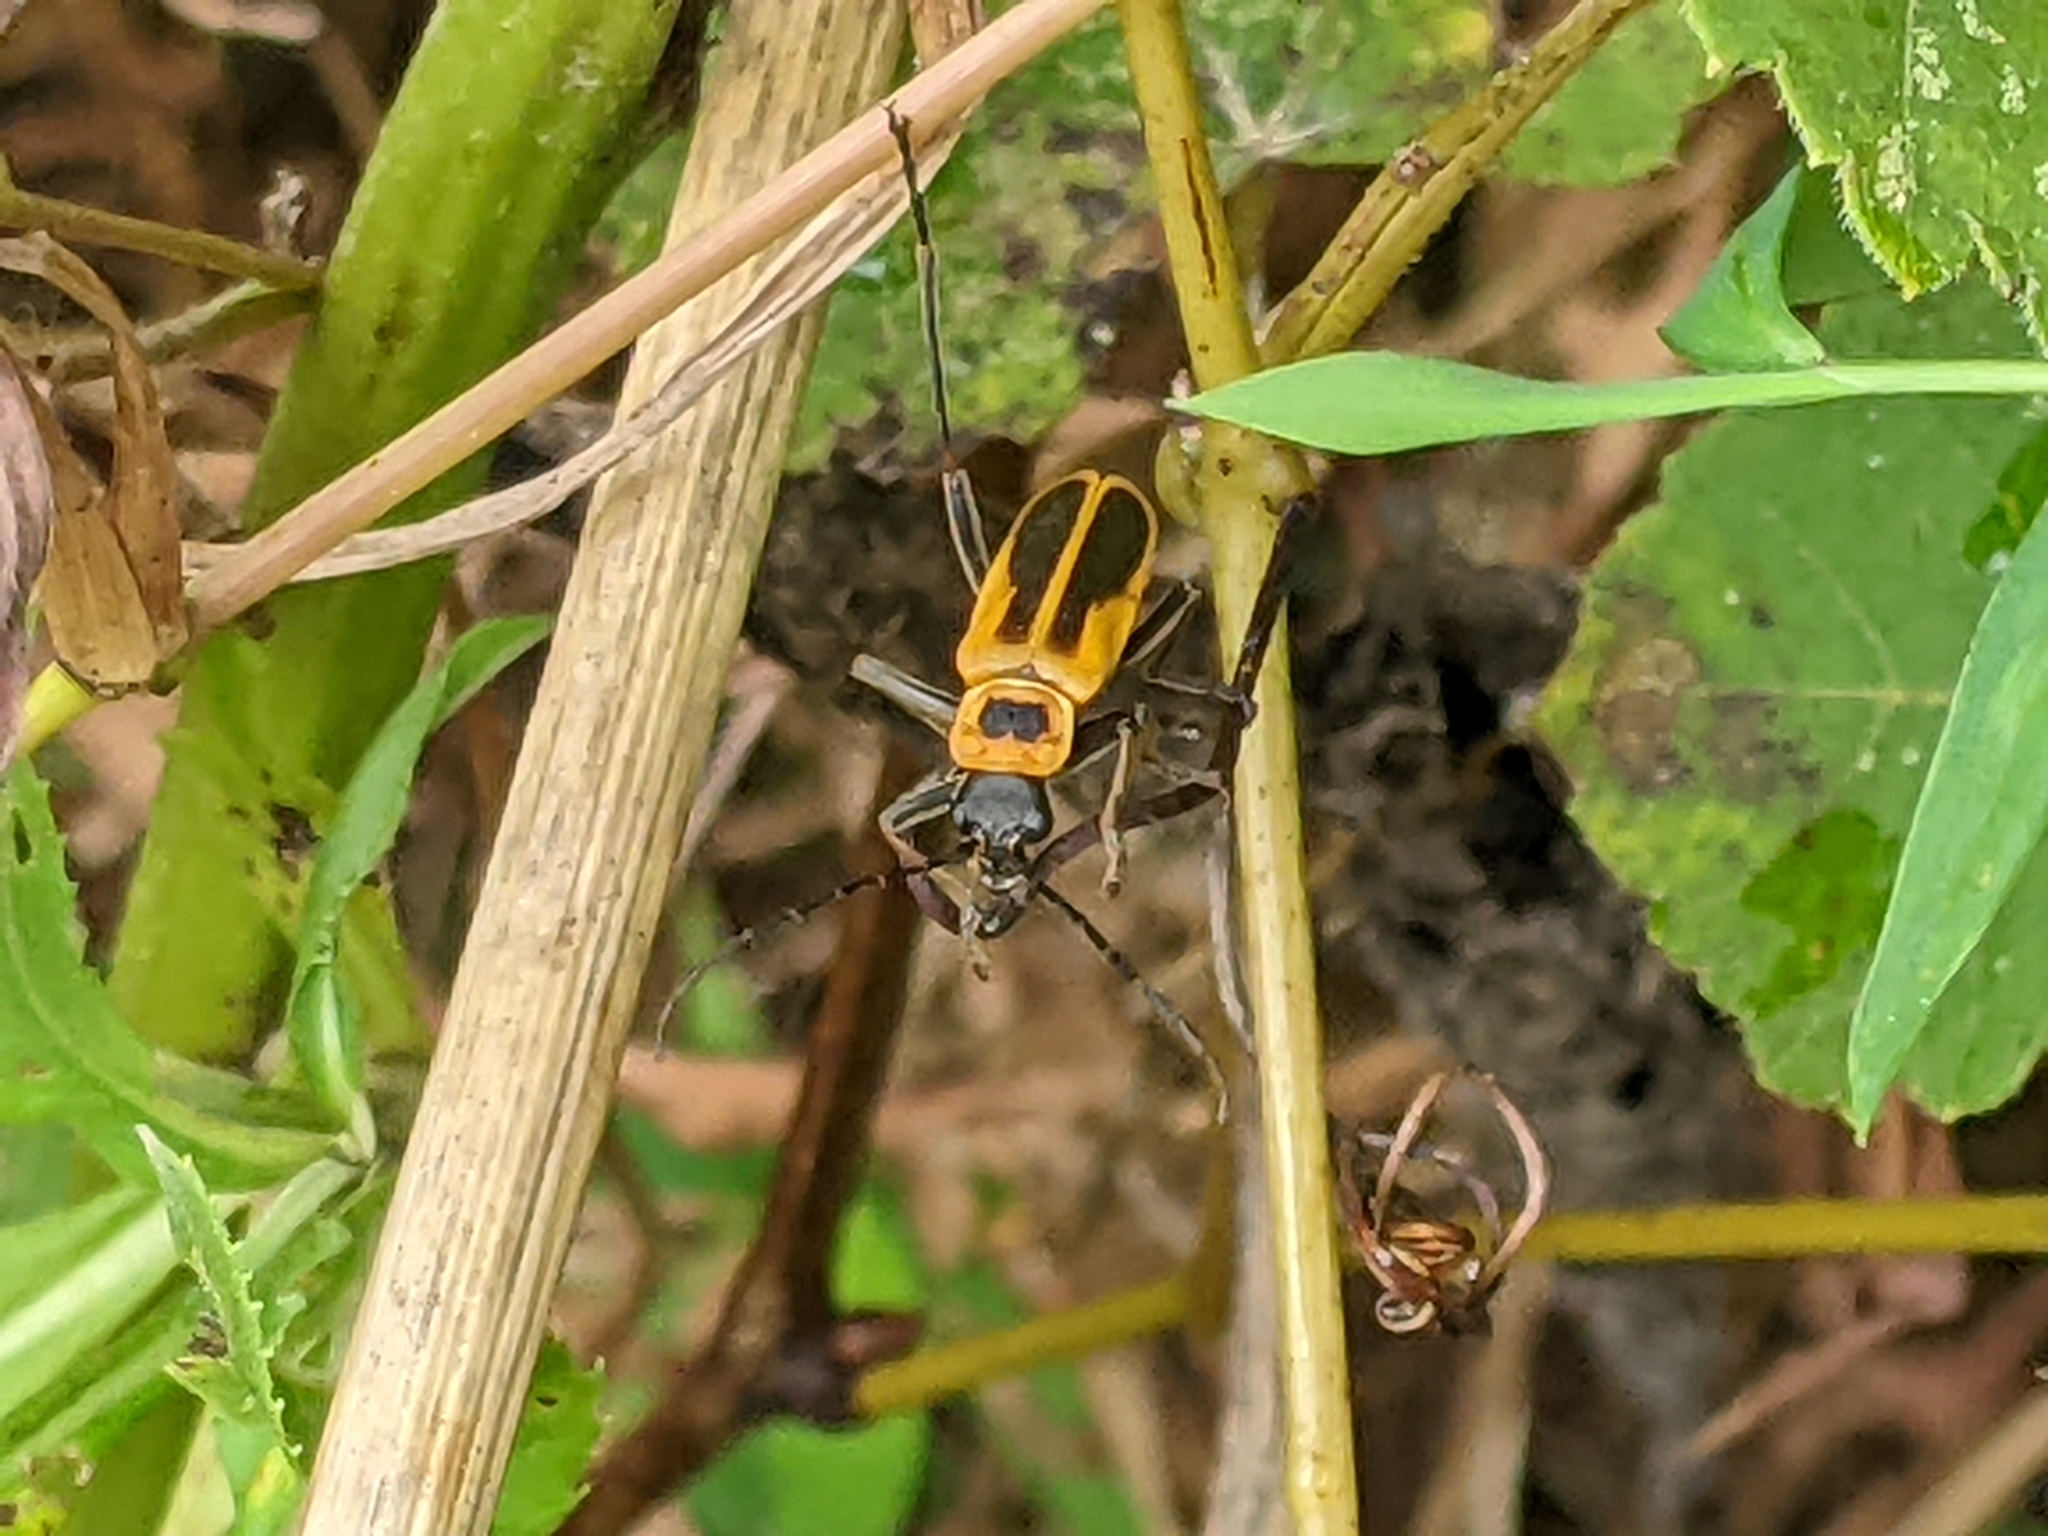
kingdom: Animalia
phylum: Arthropoda
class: Insecta
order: Coleoptera
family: Cantharidae
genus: Chauliognathus
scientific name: Chauliognathus pensylvanicus
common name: Goldenrod soldier beetle
